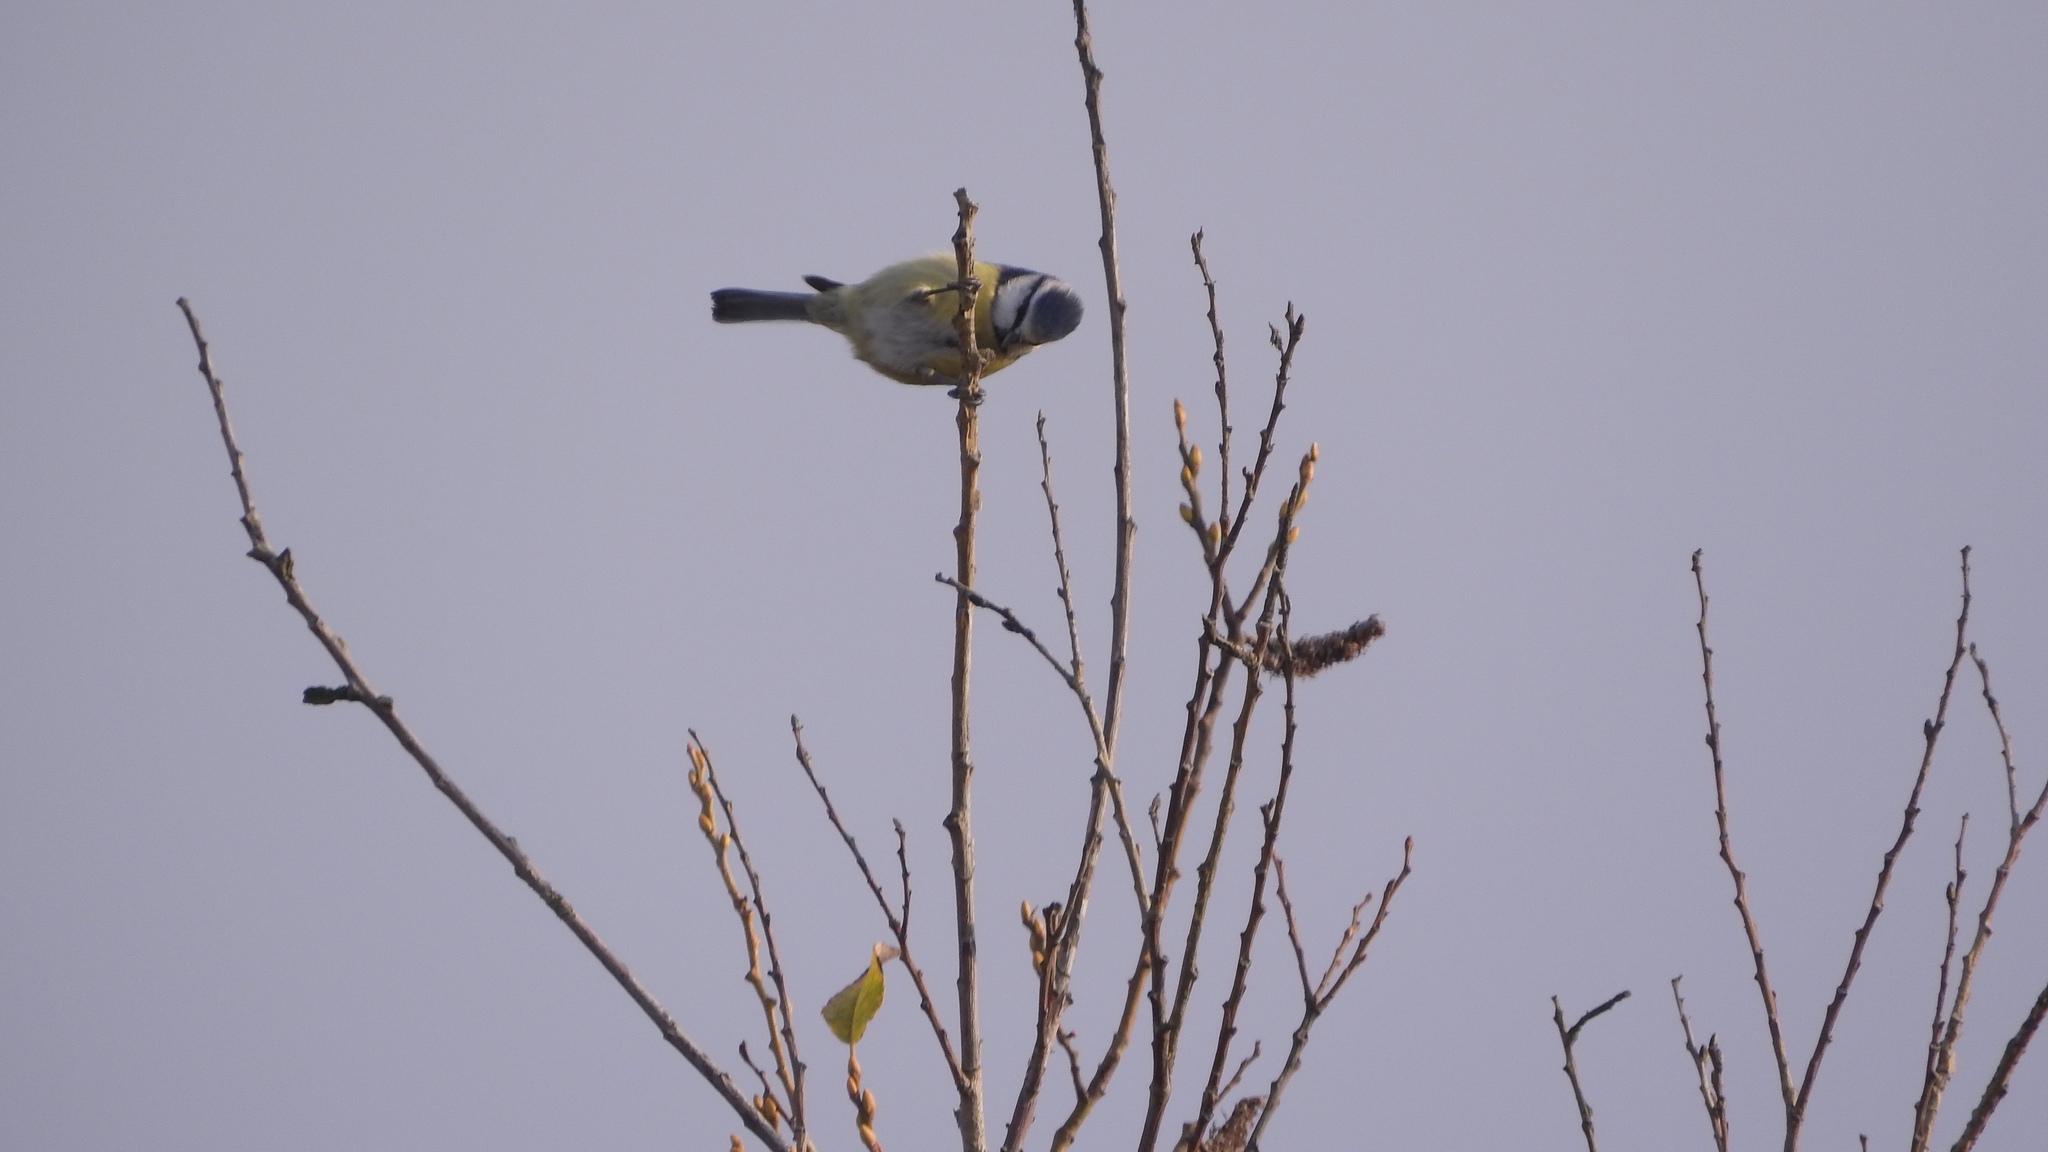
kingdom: Animalia
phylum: Chordata
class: Aves
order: Passeriformes
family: Paridae
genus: Cyanistes
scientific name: Cyanistes caeruleus
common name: Eurasian blue tit
